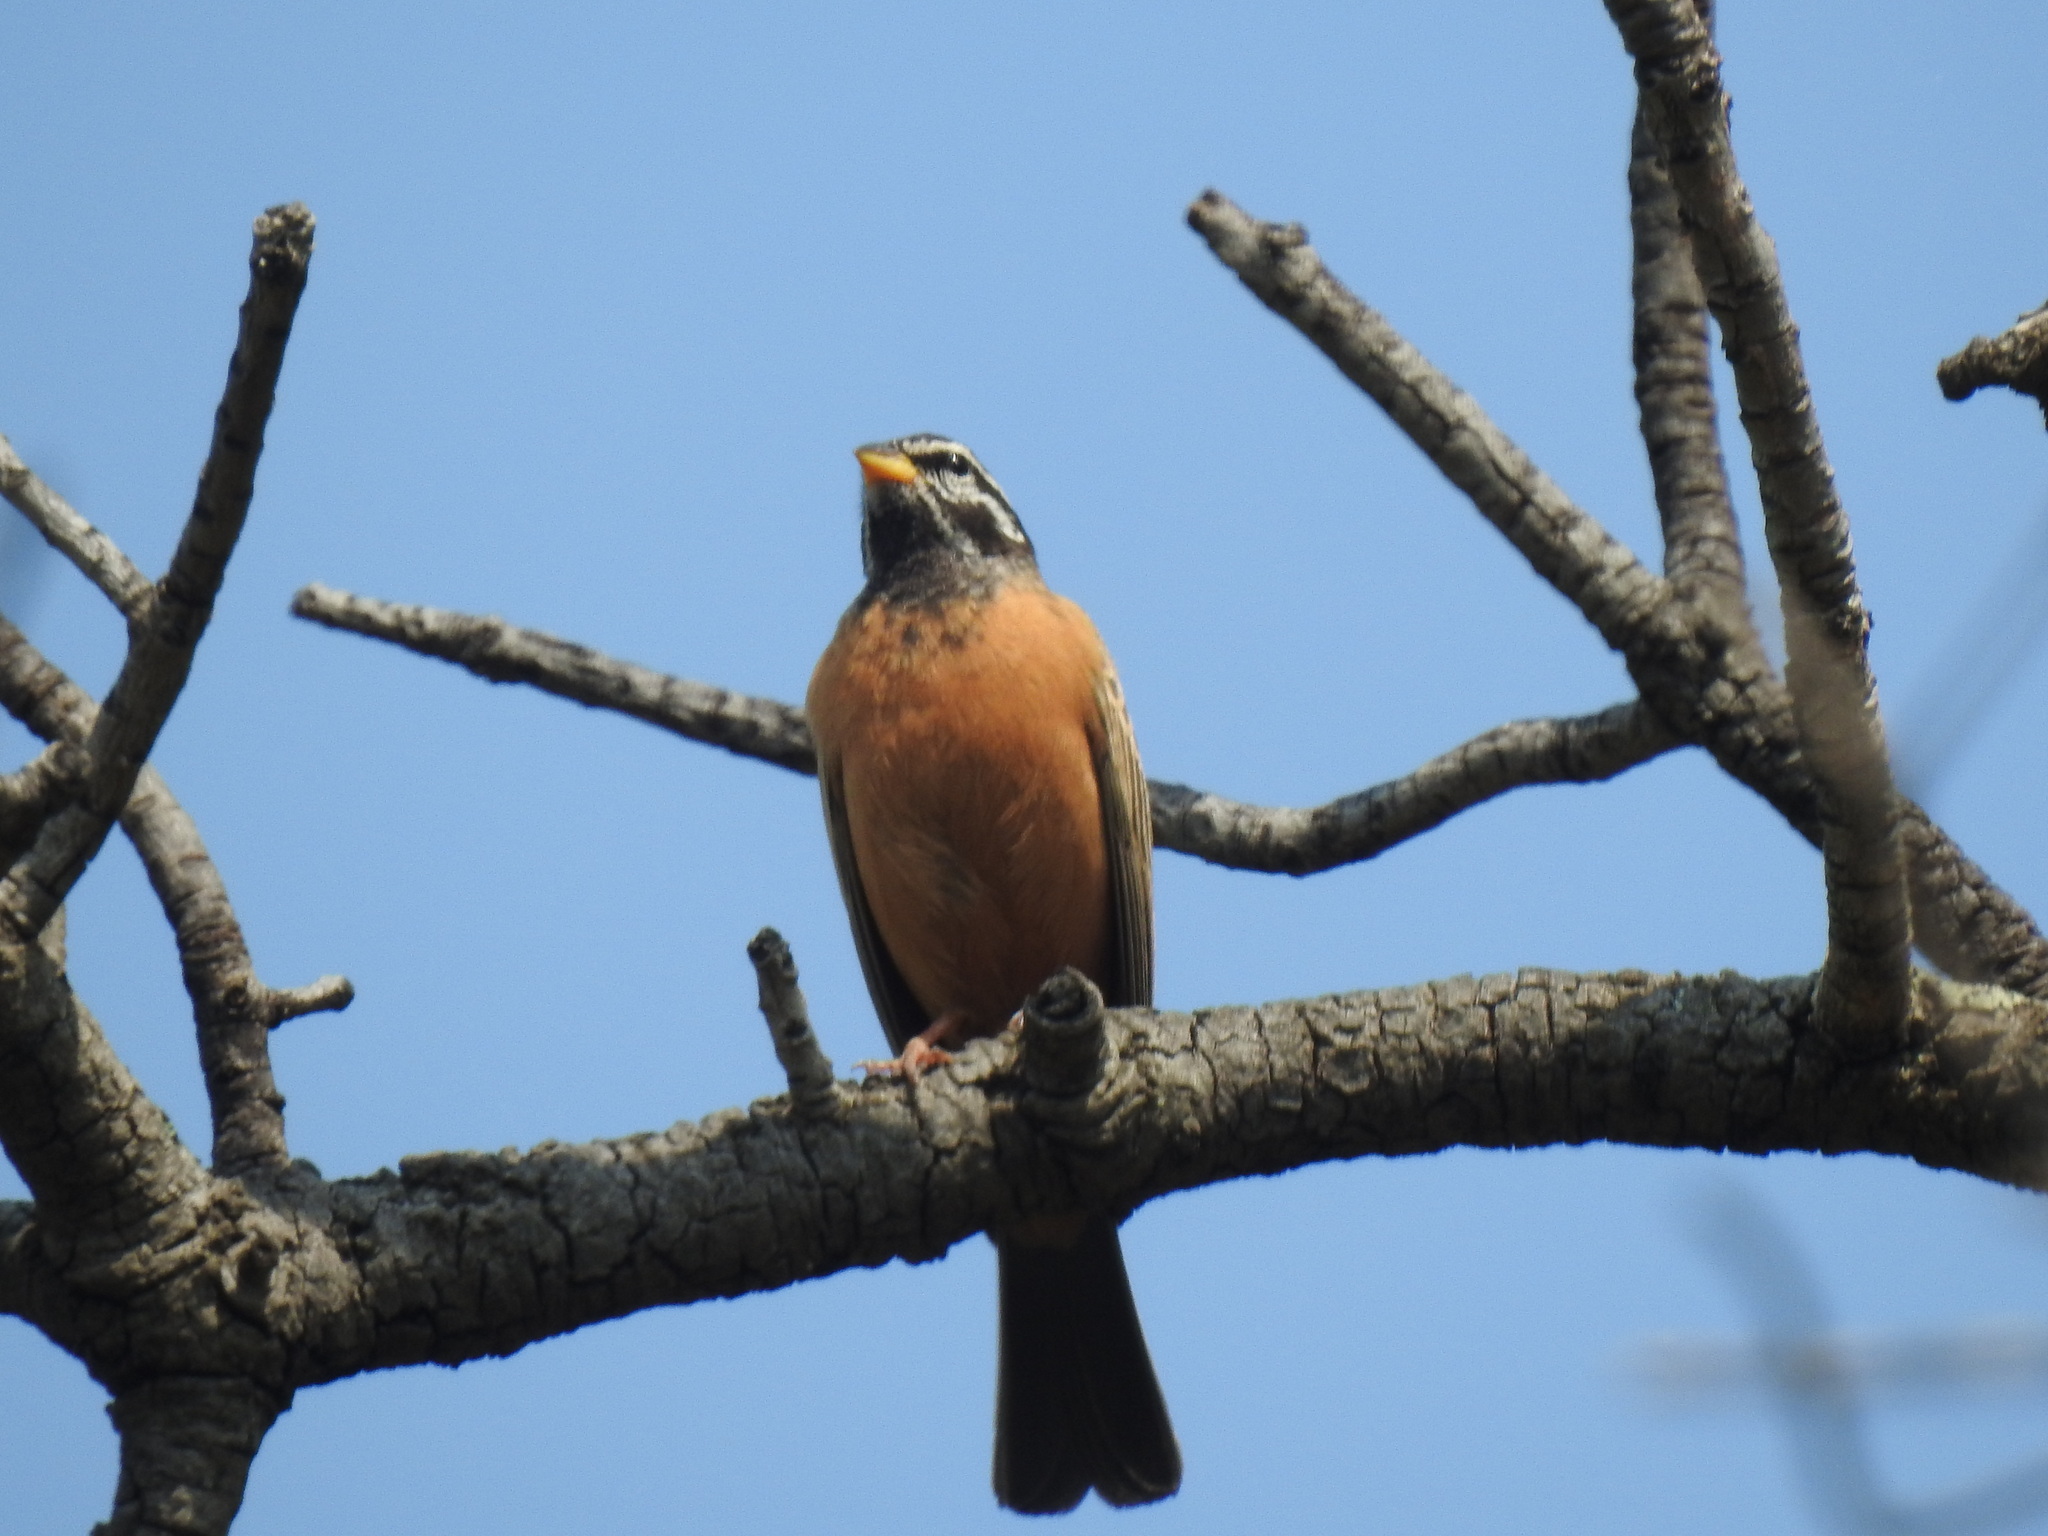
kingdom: Animalia
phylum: Chordata
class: Aves
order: Passeriformes
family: Emberizidae
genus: Emberiza
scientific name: Emberiza tahapisi
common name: Cinnamon-breasted bunting
